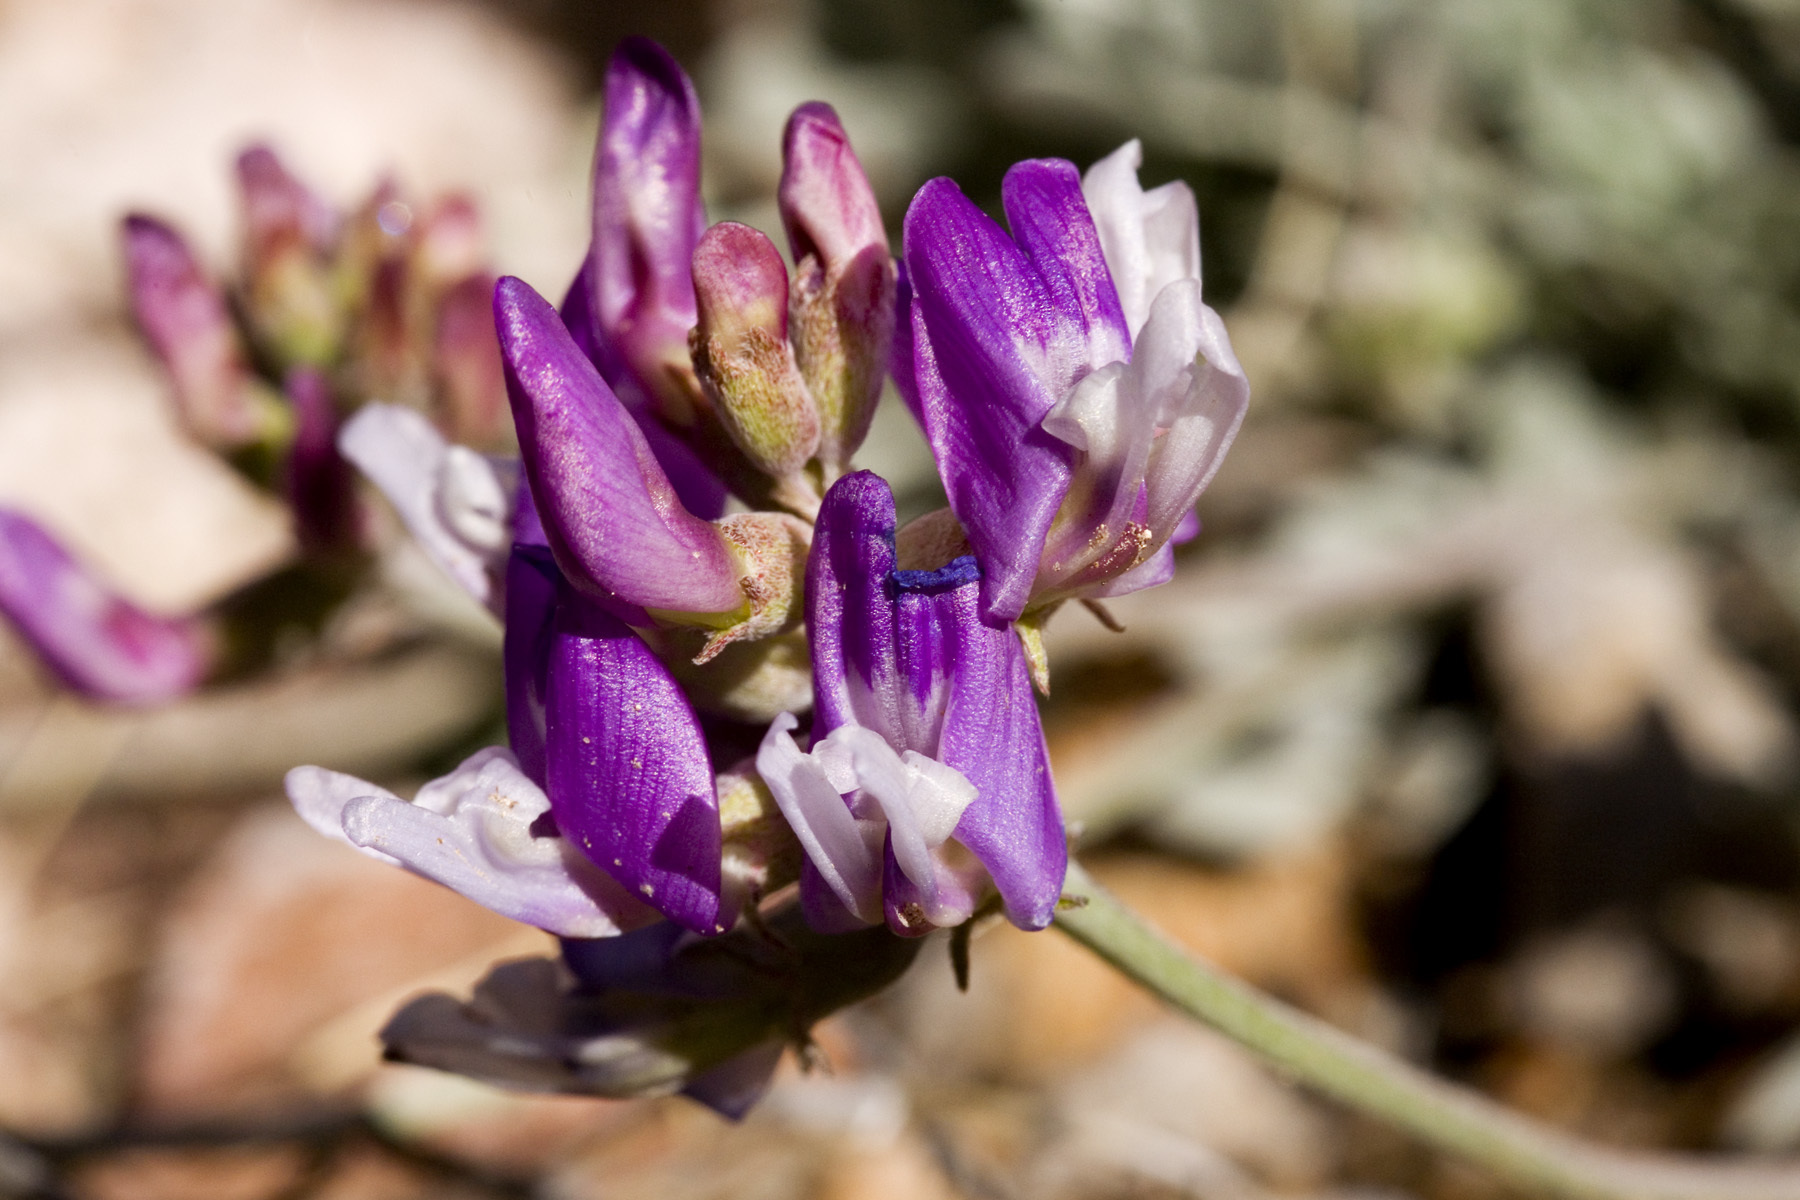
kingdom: Plantae
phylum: Tracheophyta
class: Magnoliopsida
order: Fabales
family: Fabaceae
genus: Astragalus
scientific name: Astragalus missouriensis
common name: Missouri milk-vetch
